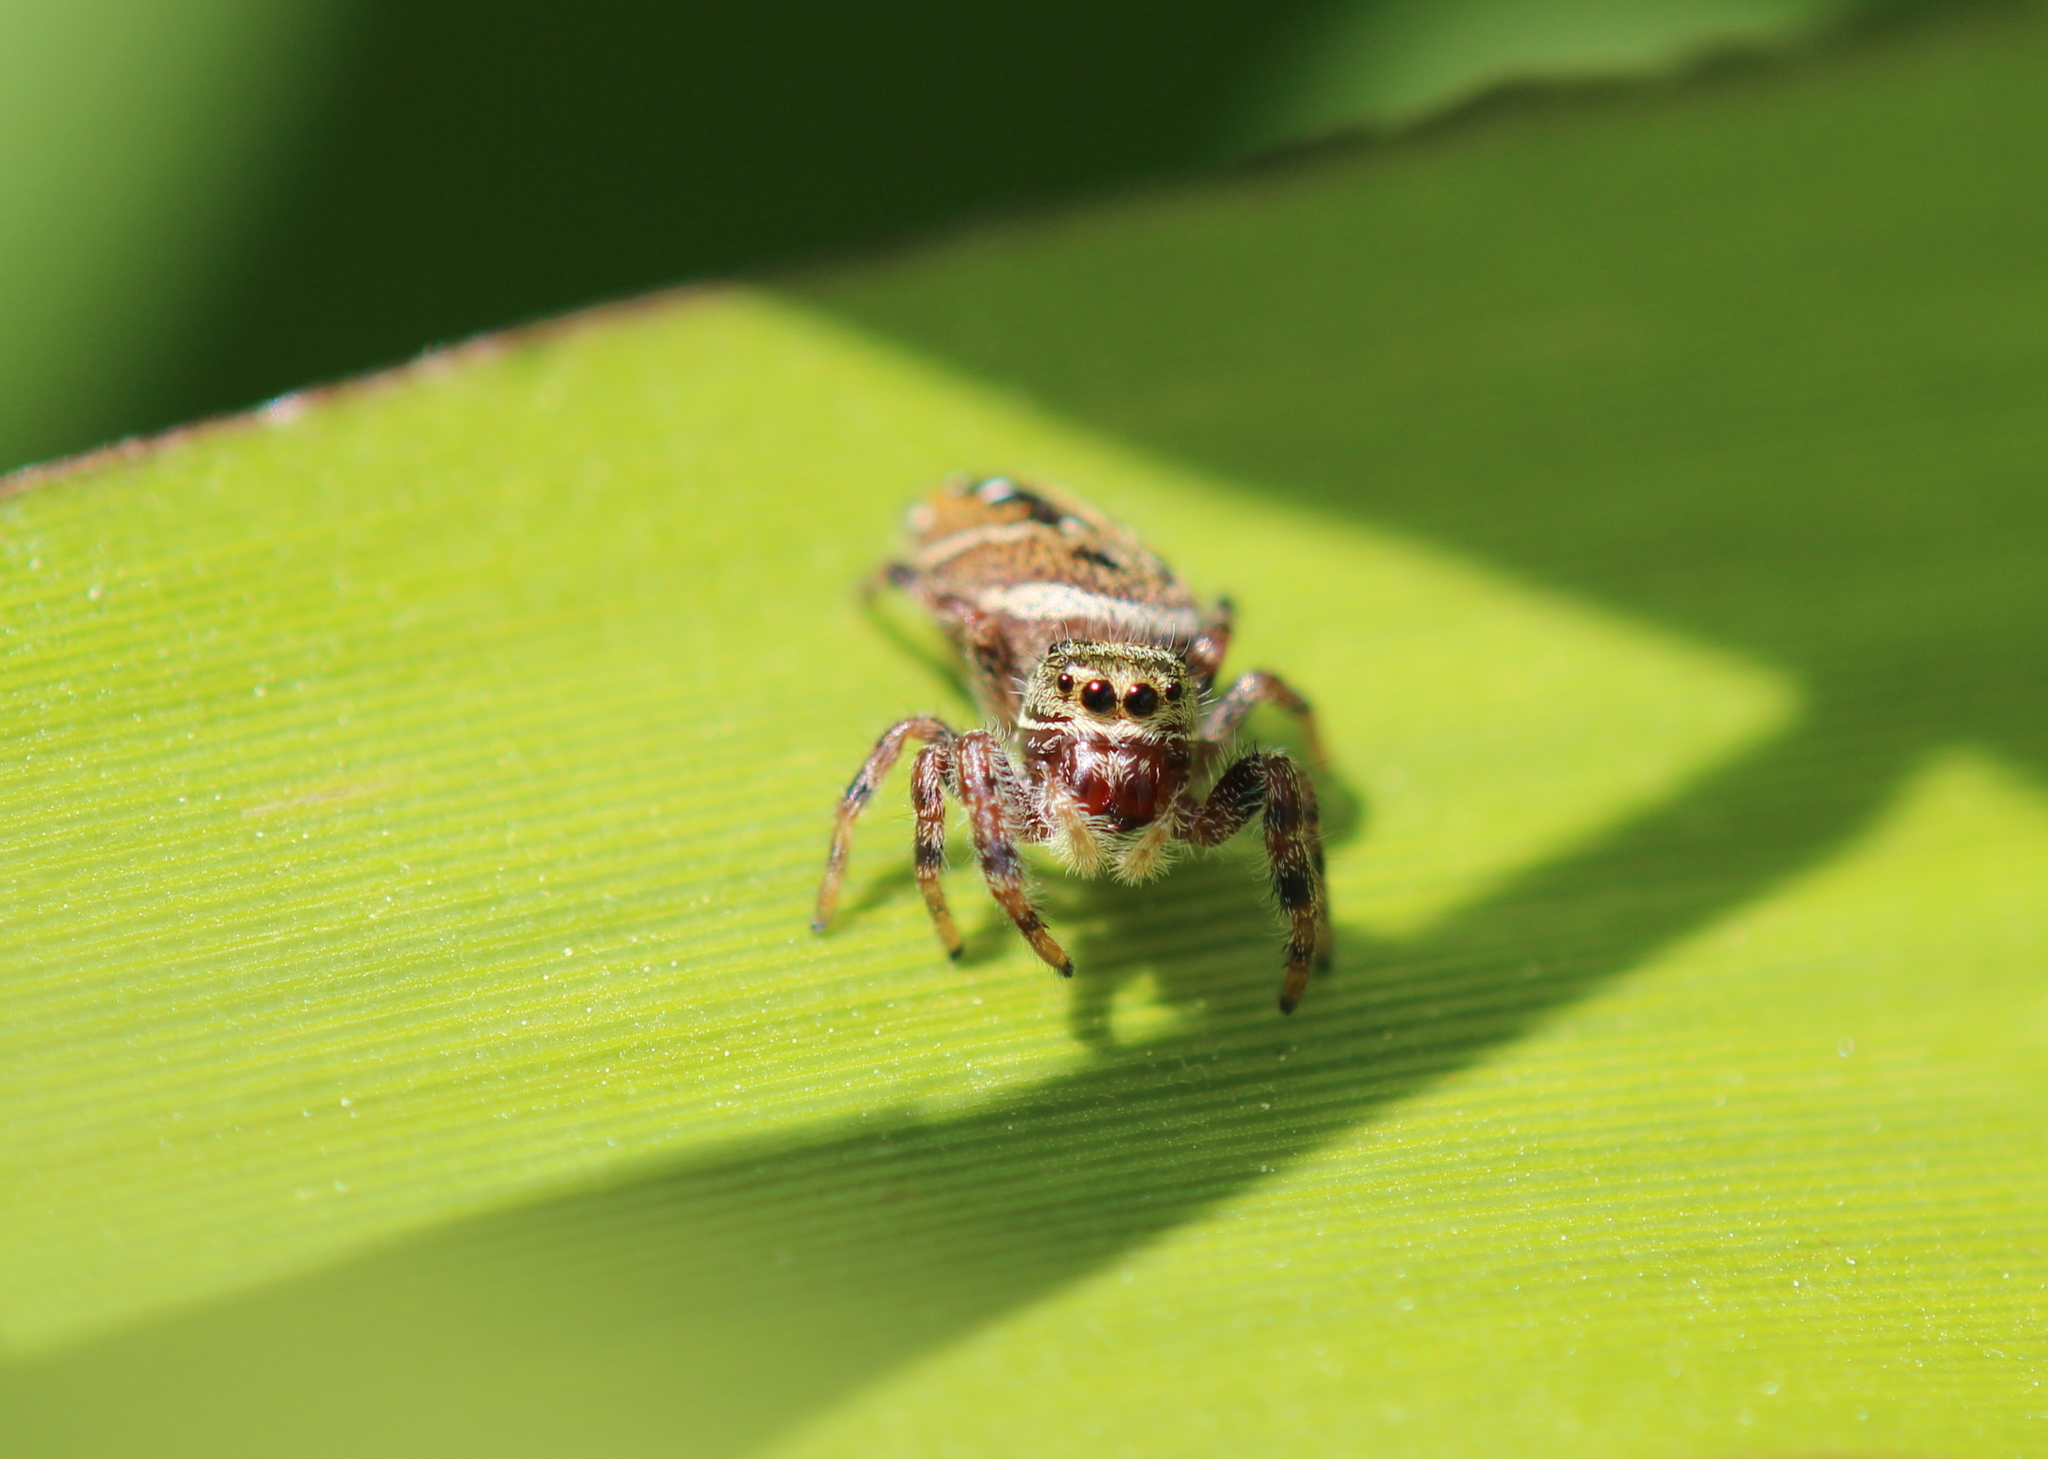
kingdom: Animalia
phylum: Arthropoda
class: Arachnida
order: Araneae
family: Salticidae
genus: Phidippus
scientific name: Phidippus clarus
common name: Brilliant jumping spider
